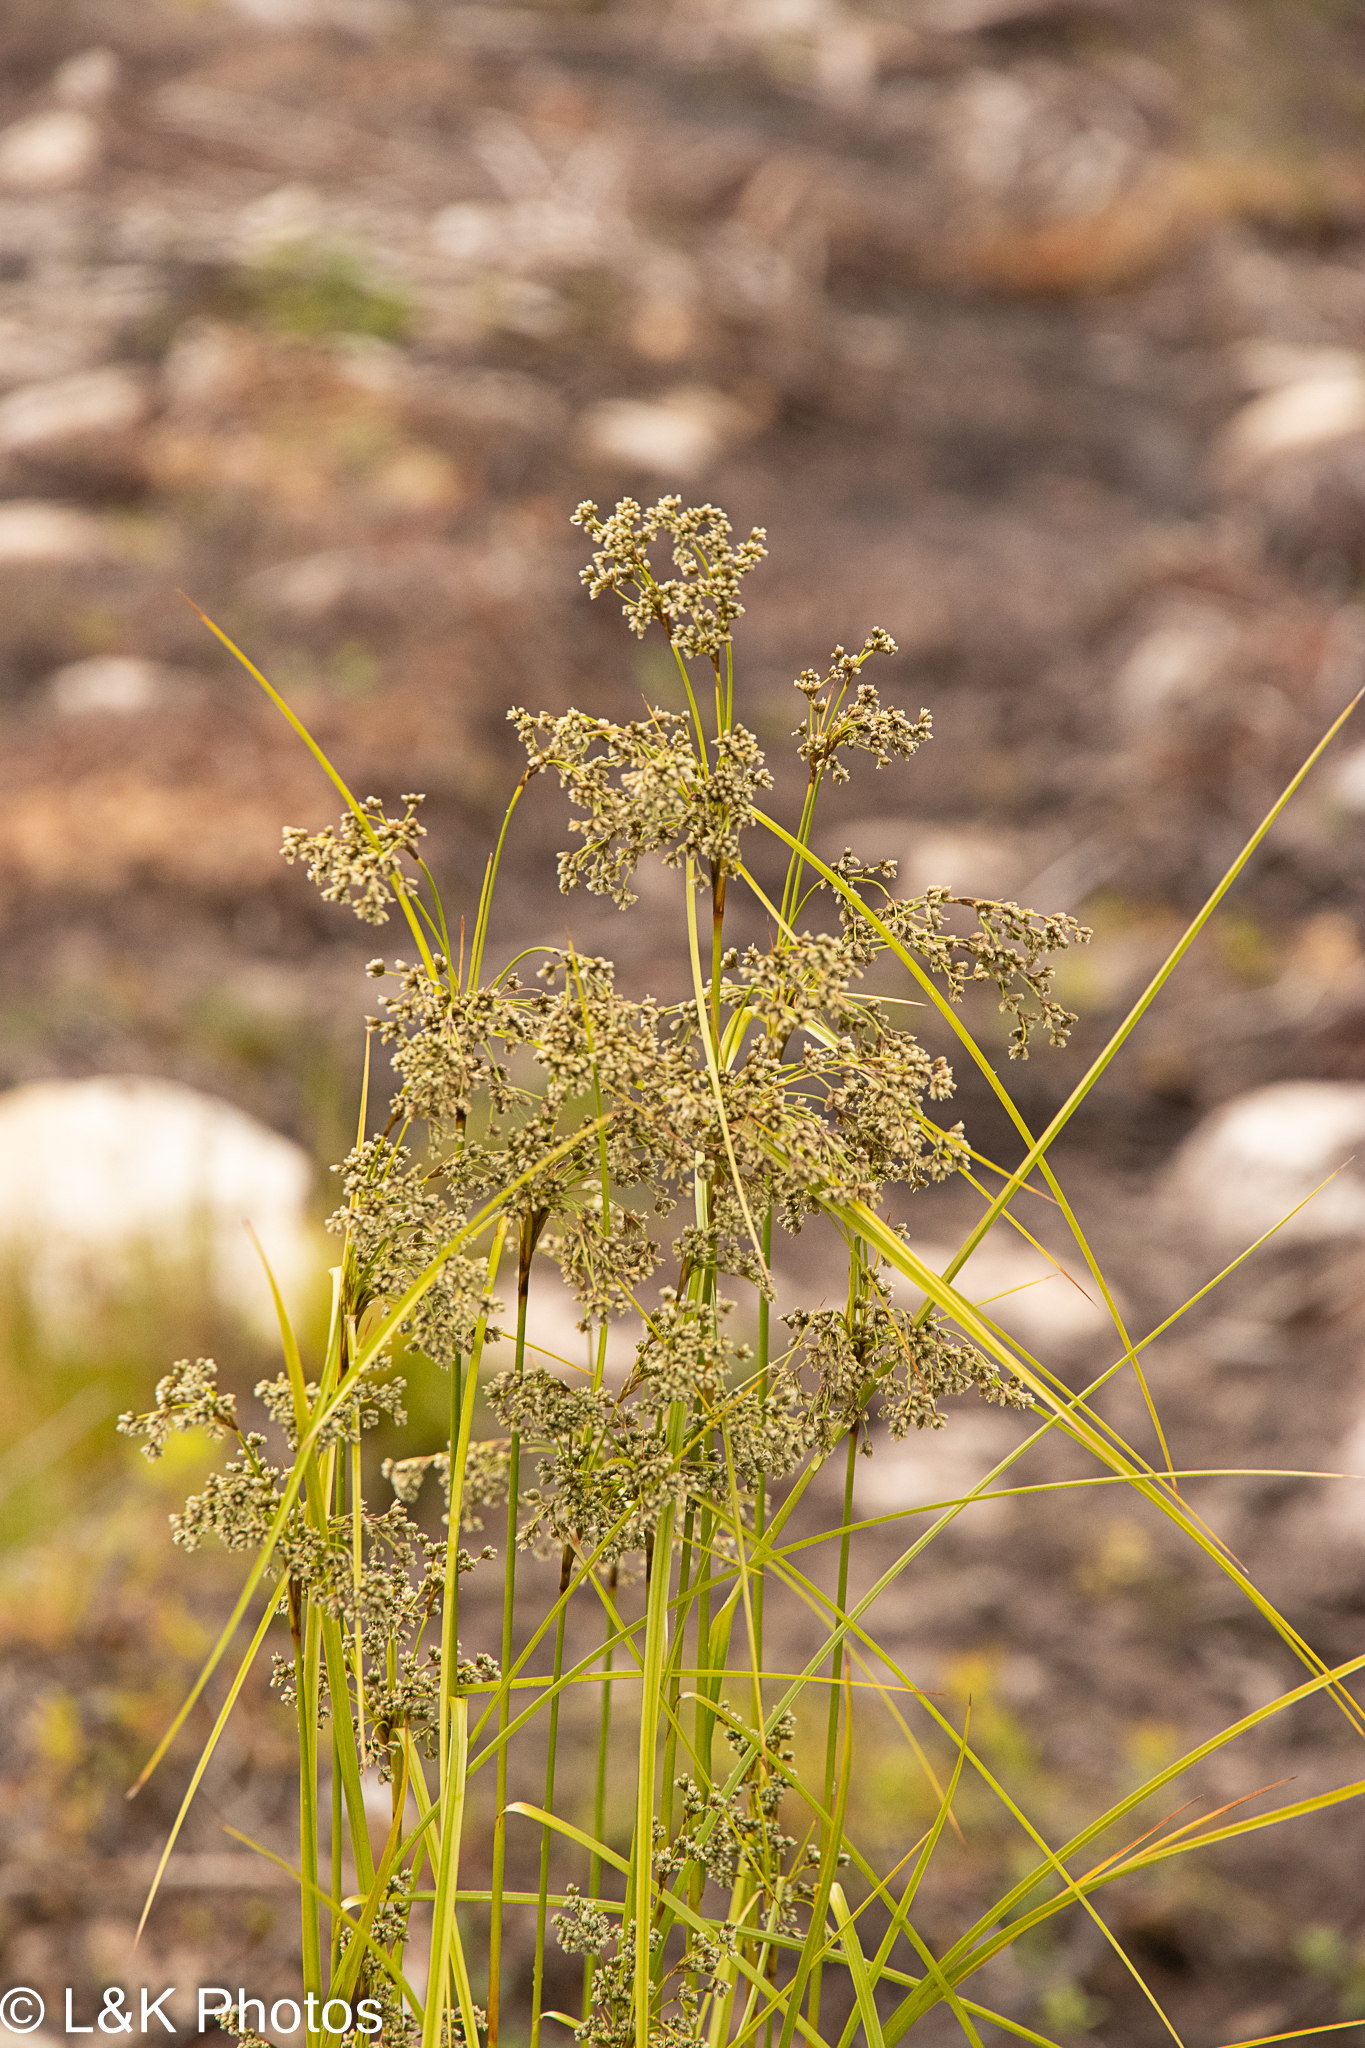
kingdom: Plantae
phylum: Tracheophyta
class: Liliopsida
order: Poales
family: Cyperaceae
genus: Scirpus
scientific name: Scirpus cyperinus
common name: Black-sheathed bulrush
